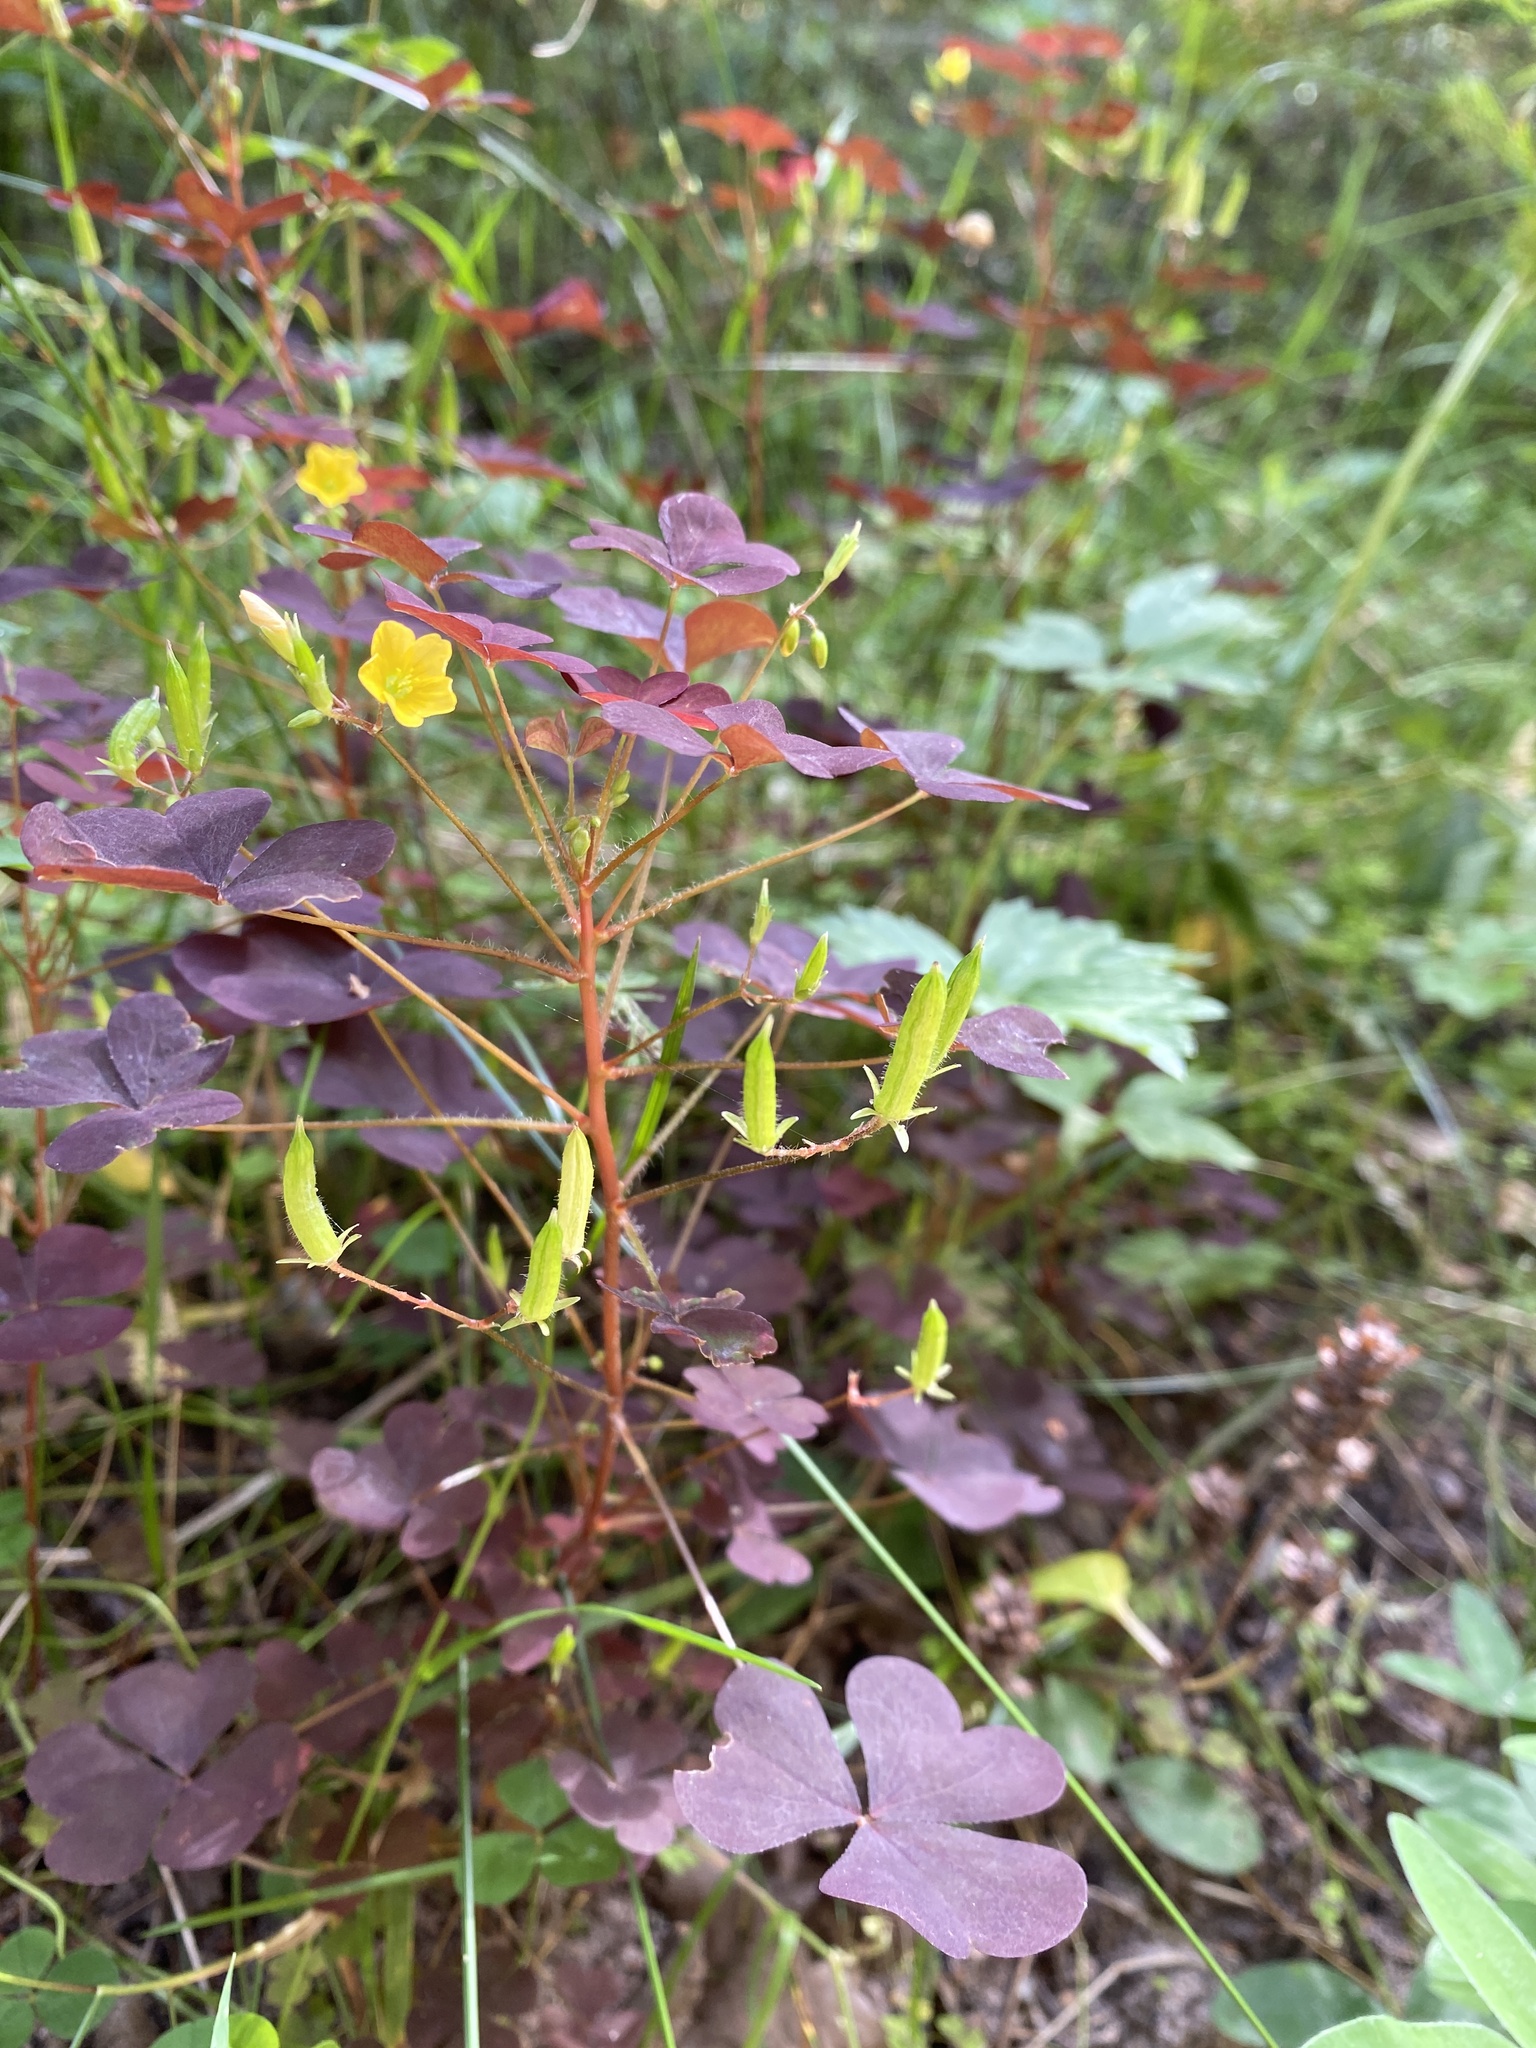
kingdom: Plantae
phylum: Tracheophyta
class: Magnoliopsida
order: Oxalidales
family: Oxalidaceae
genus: Oxalis
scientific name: Oxalis stricta
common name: Upright yellow-sorrel
